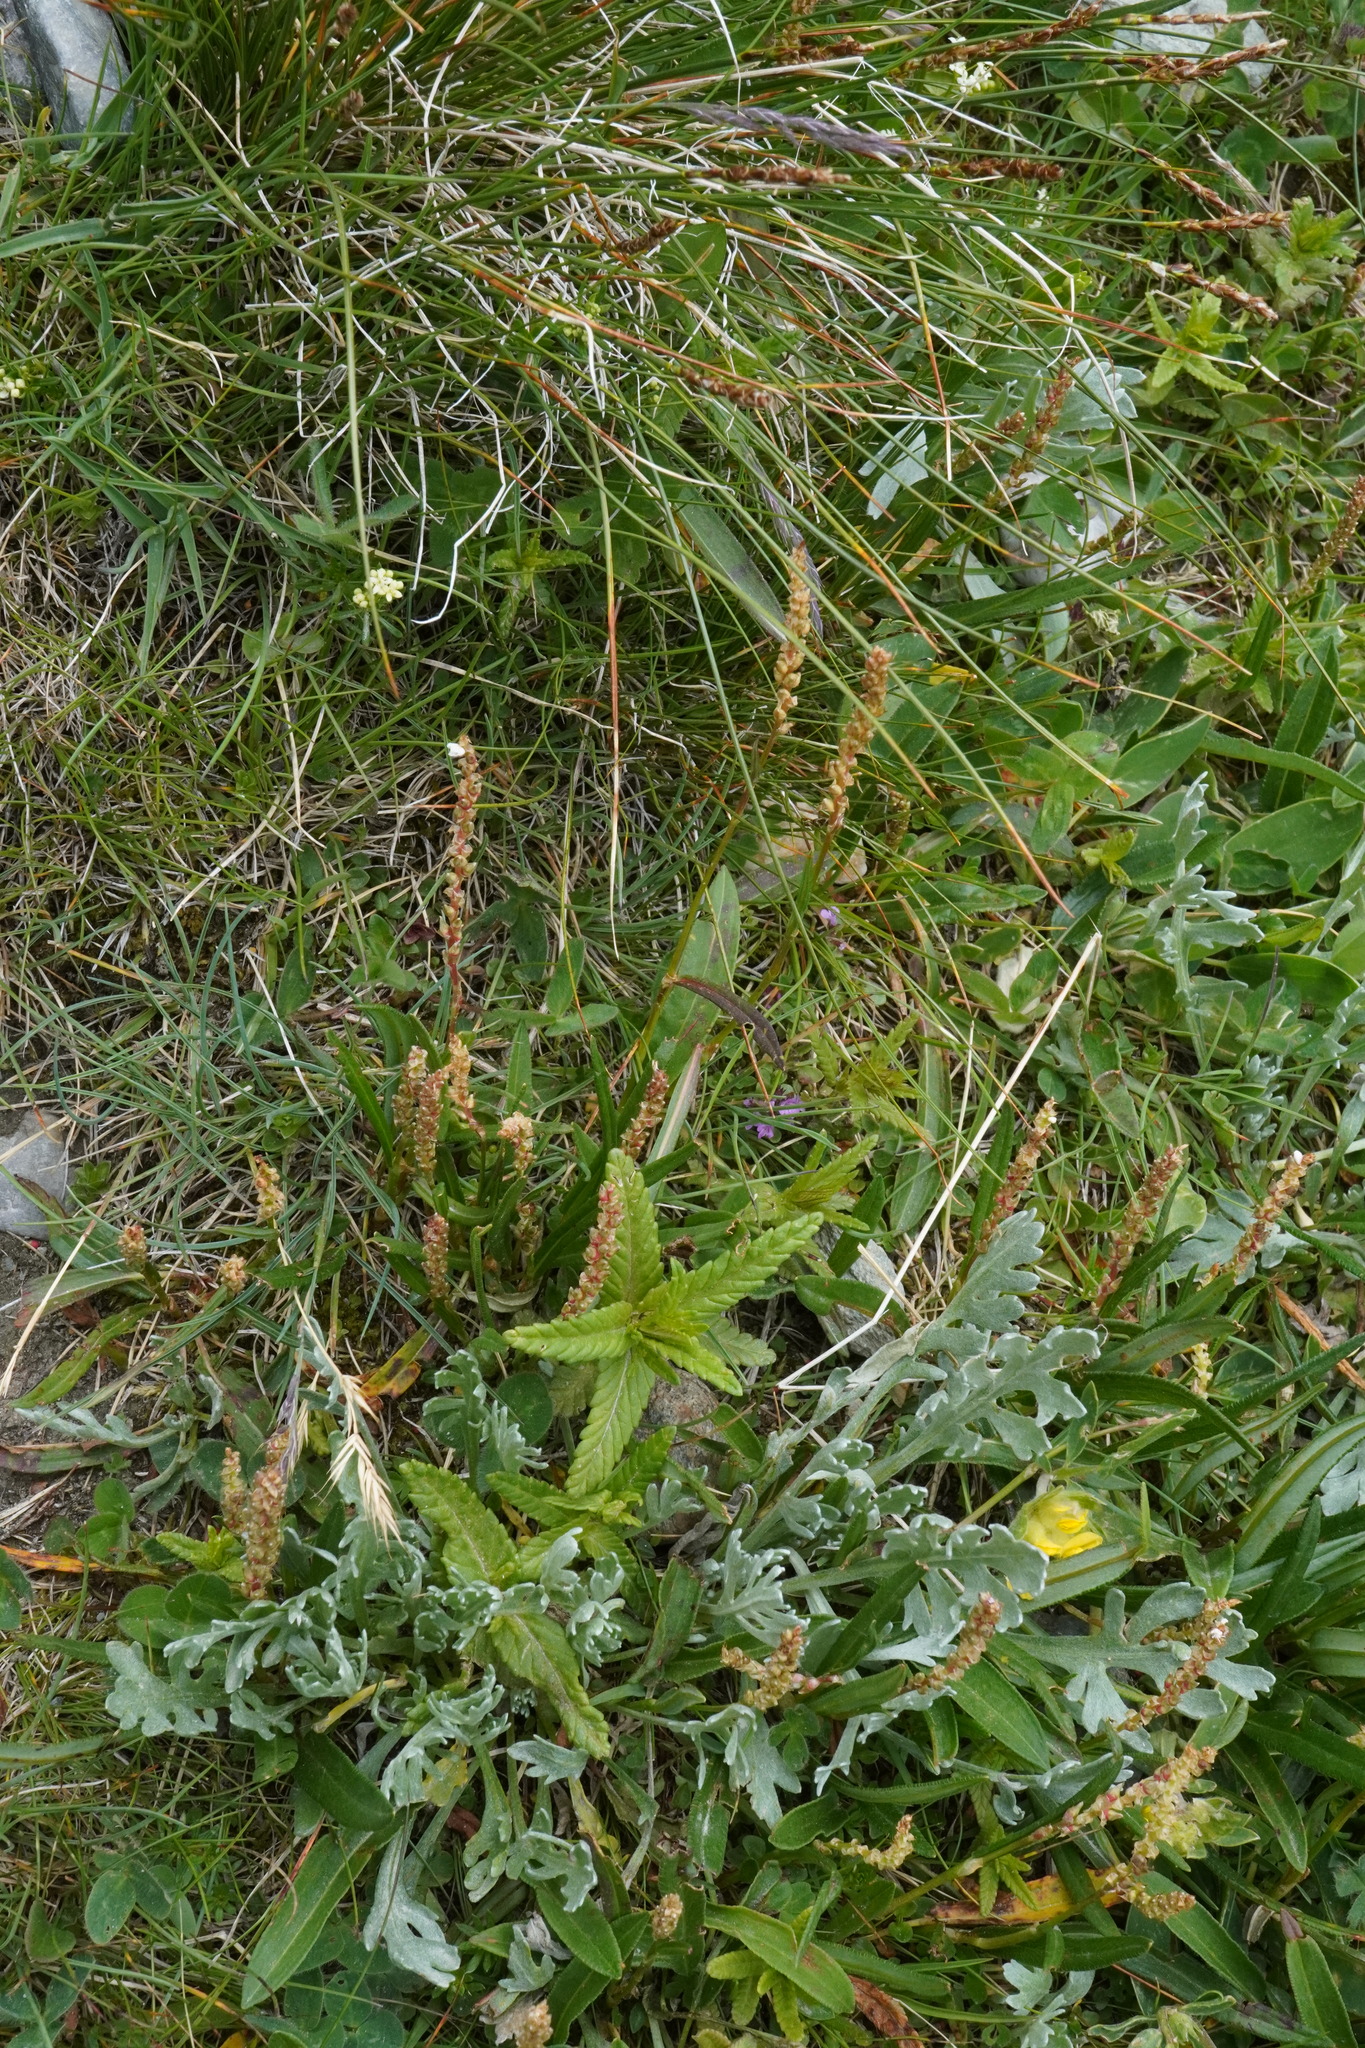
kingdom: Plantae
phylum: Tracheophyta
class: Magnoliopsida
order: Caryophyllales
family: Polygonaceae
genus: Bistorta
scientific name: Bistorta vivipara
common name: Alpine bistort
